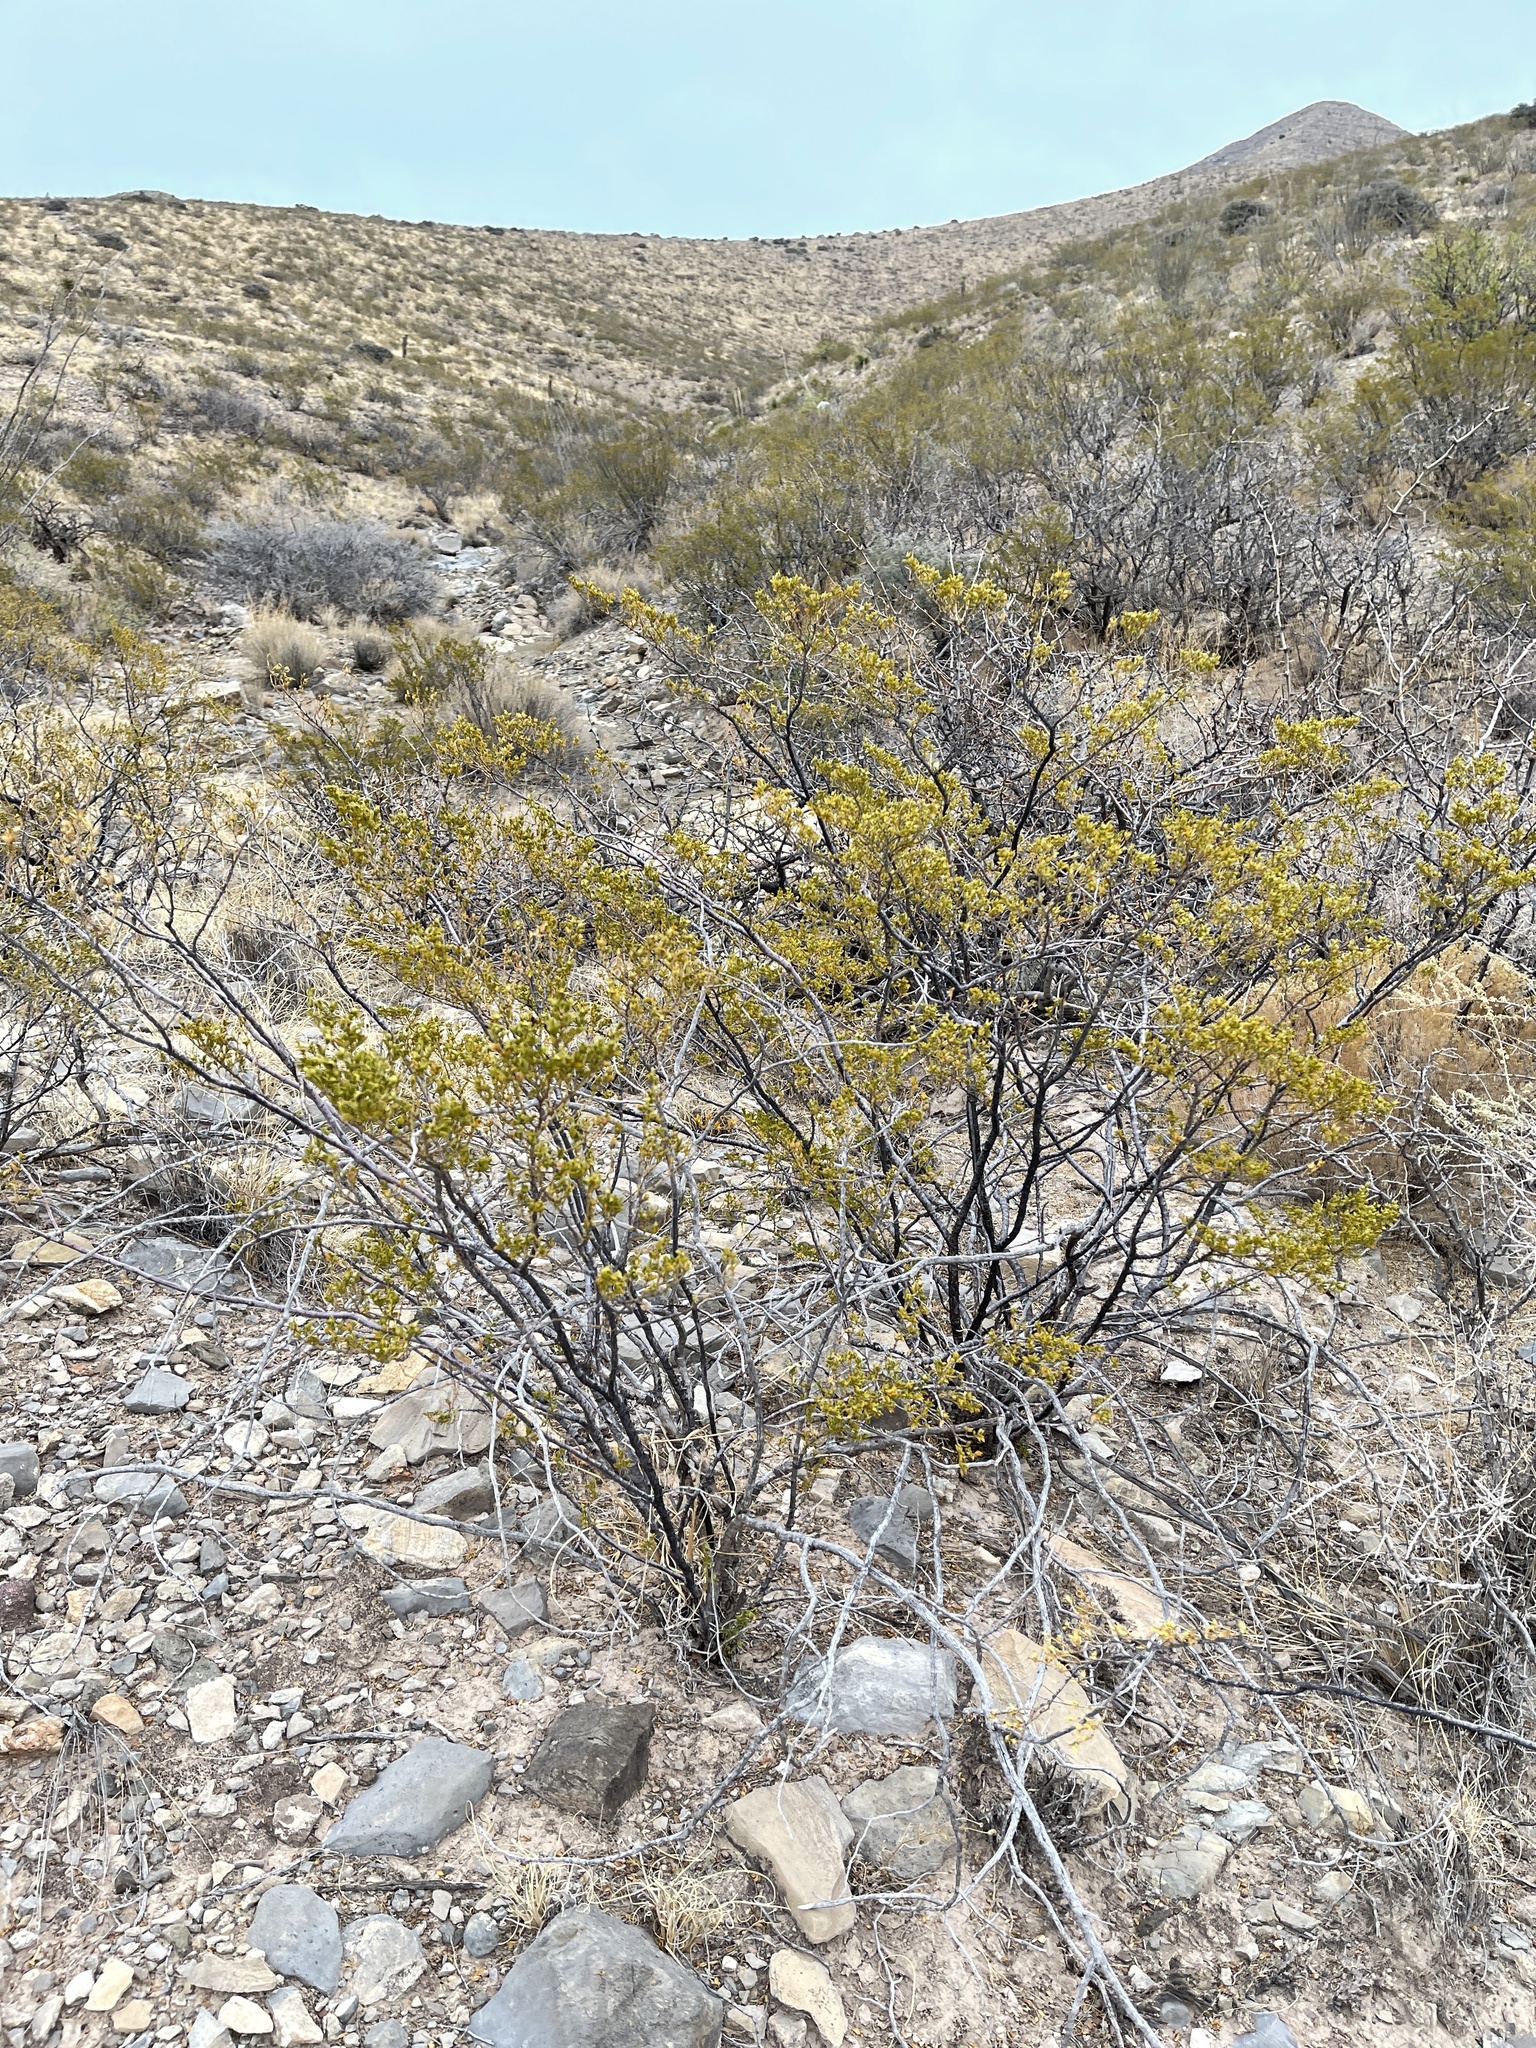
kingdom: Plantae
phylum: Tracheophyta
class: Magnoliopsida
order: Zygophyllales
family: Zygophyllaceae
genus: Larrea
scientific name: Larrea tridentata
